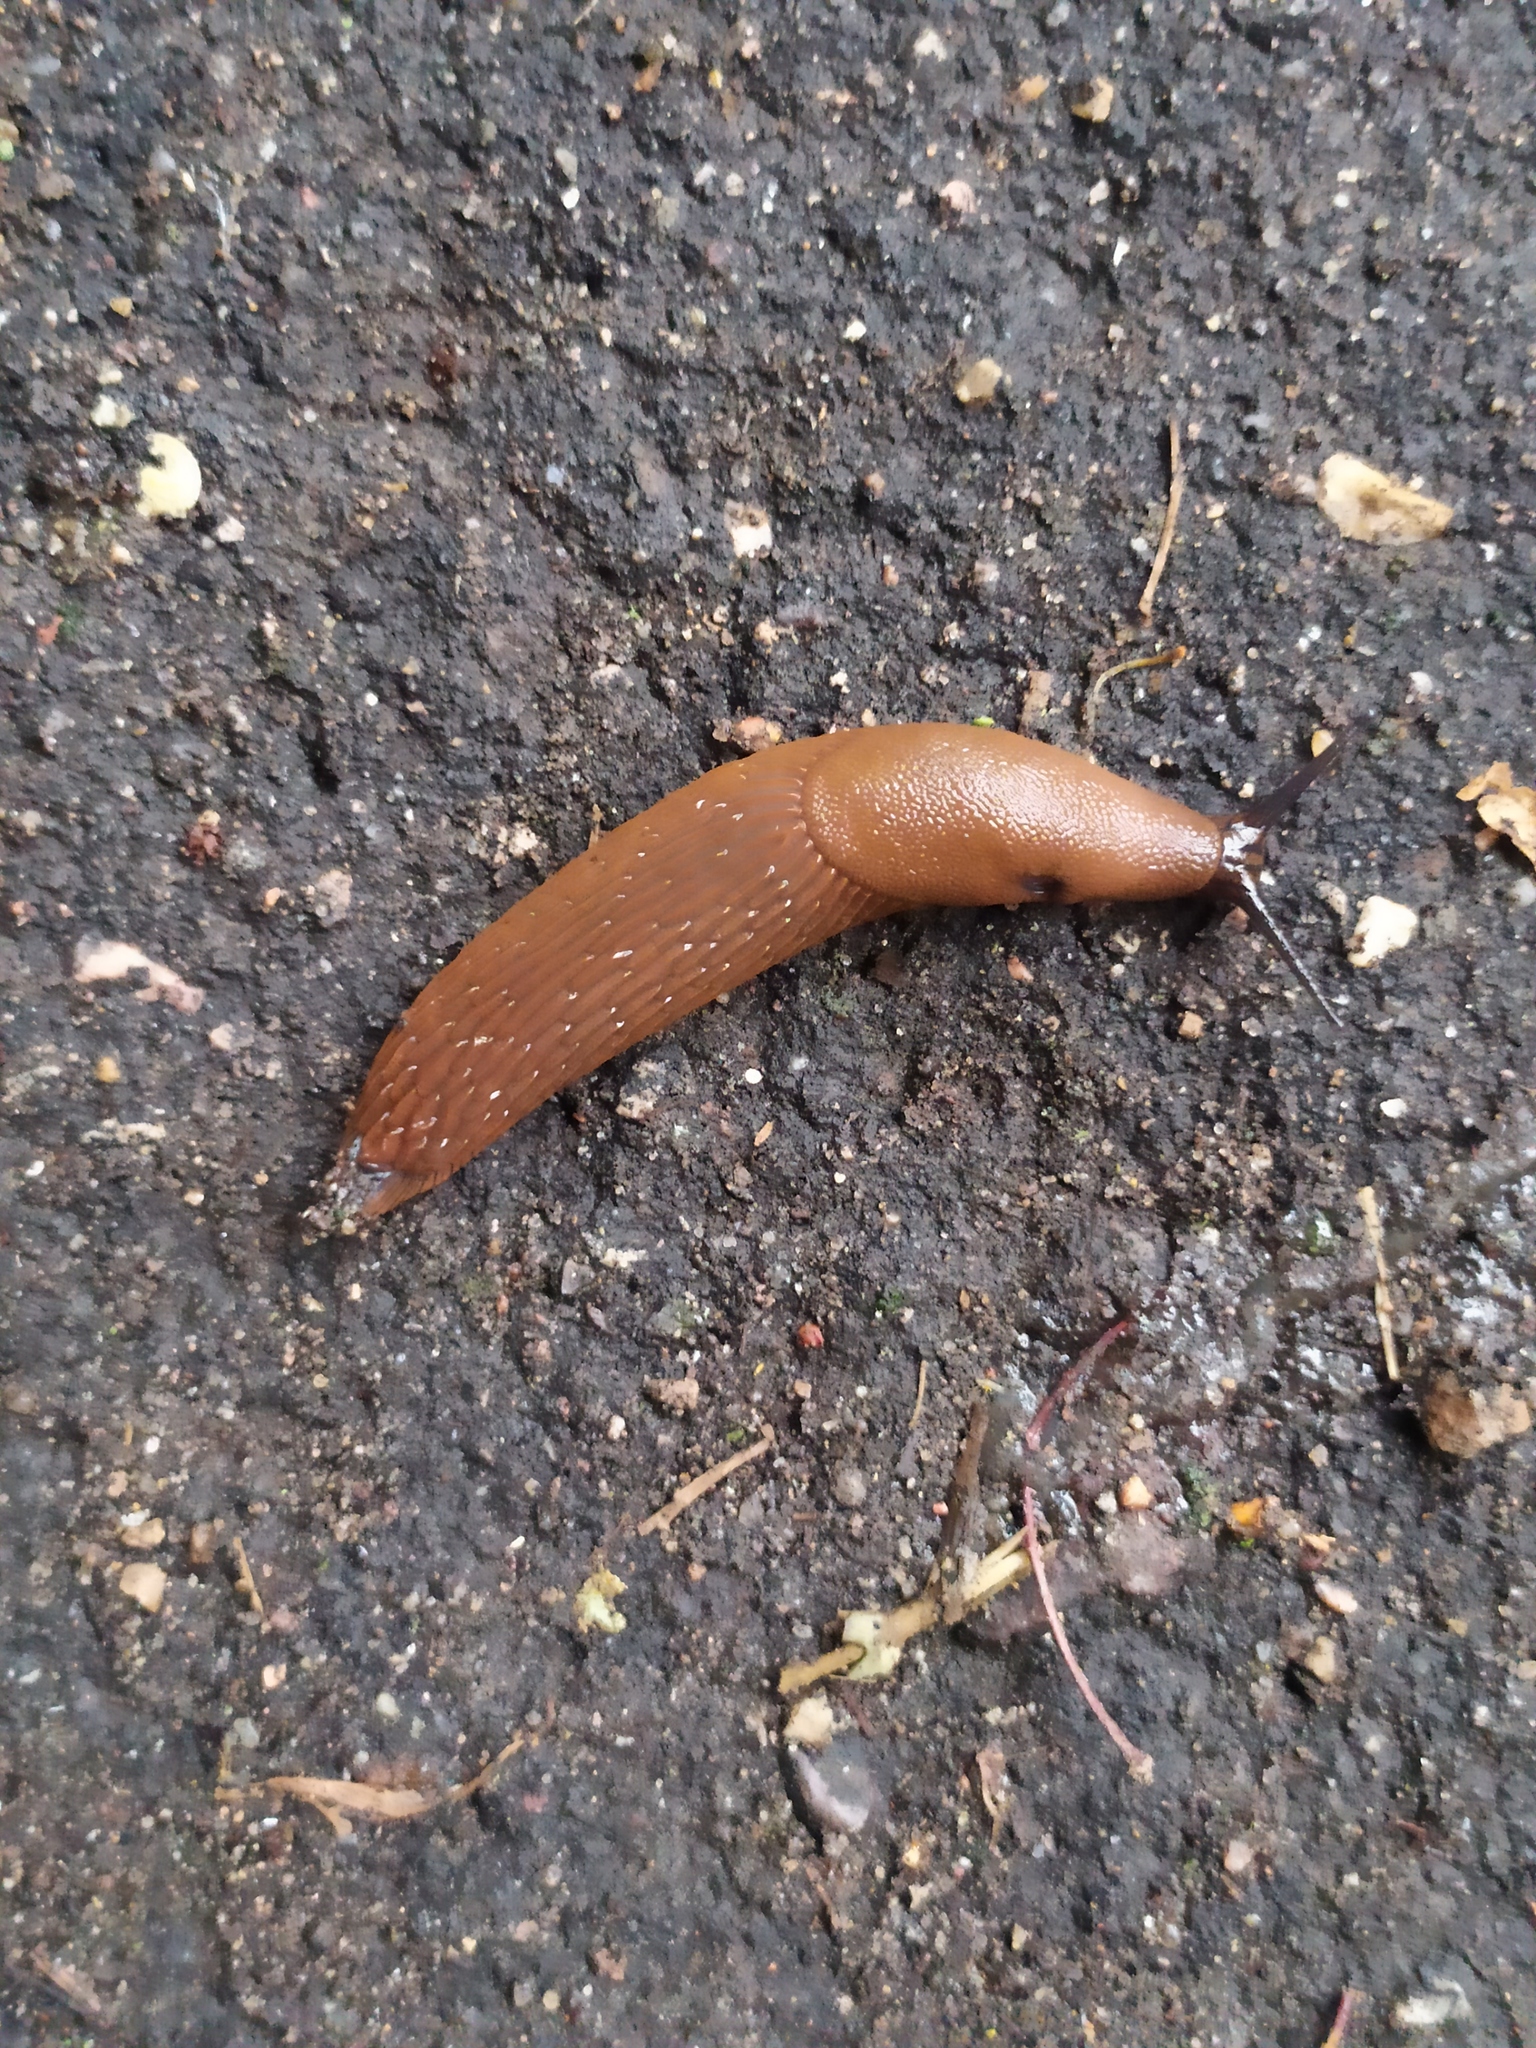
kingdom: Animalia
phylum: Mollusca
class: Gastropoda
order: Stylommatophora
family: Arionidae
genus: Arion
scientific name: Arion vulgaris
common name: Lusitanian slug
